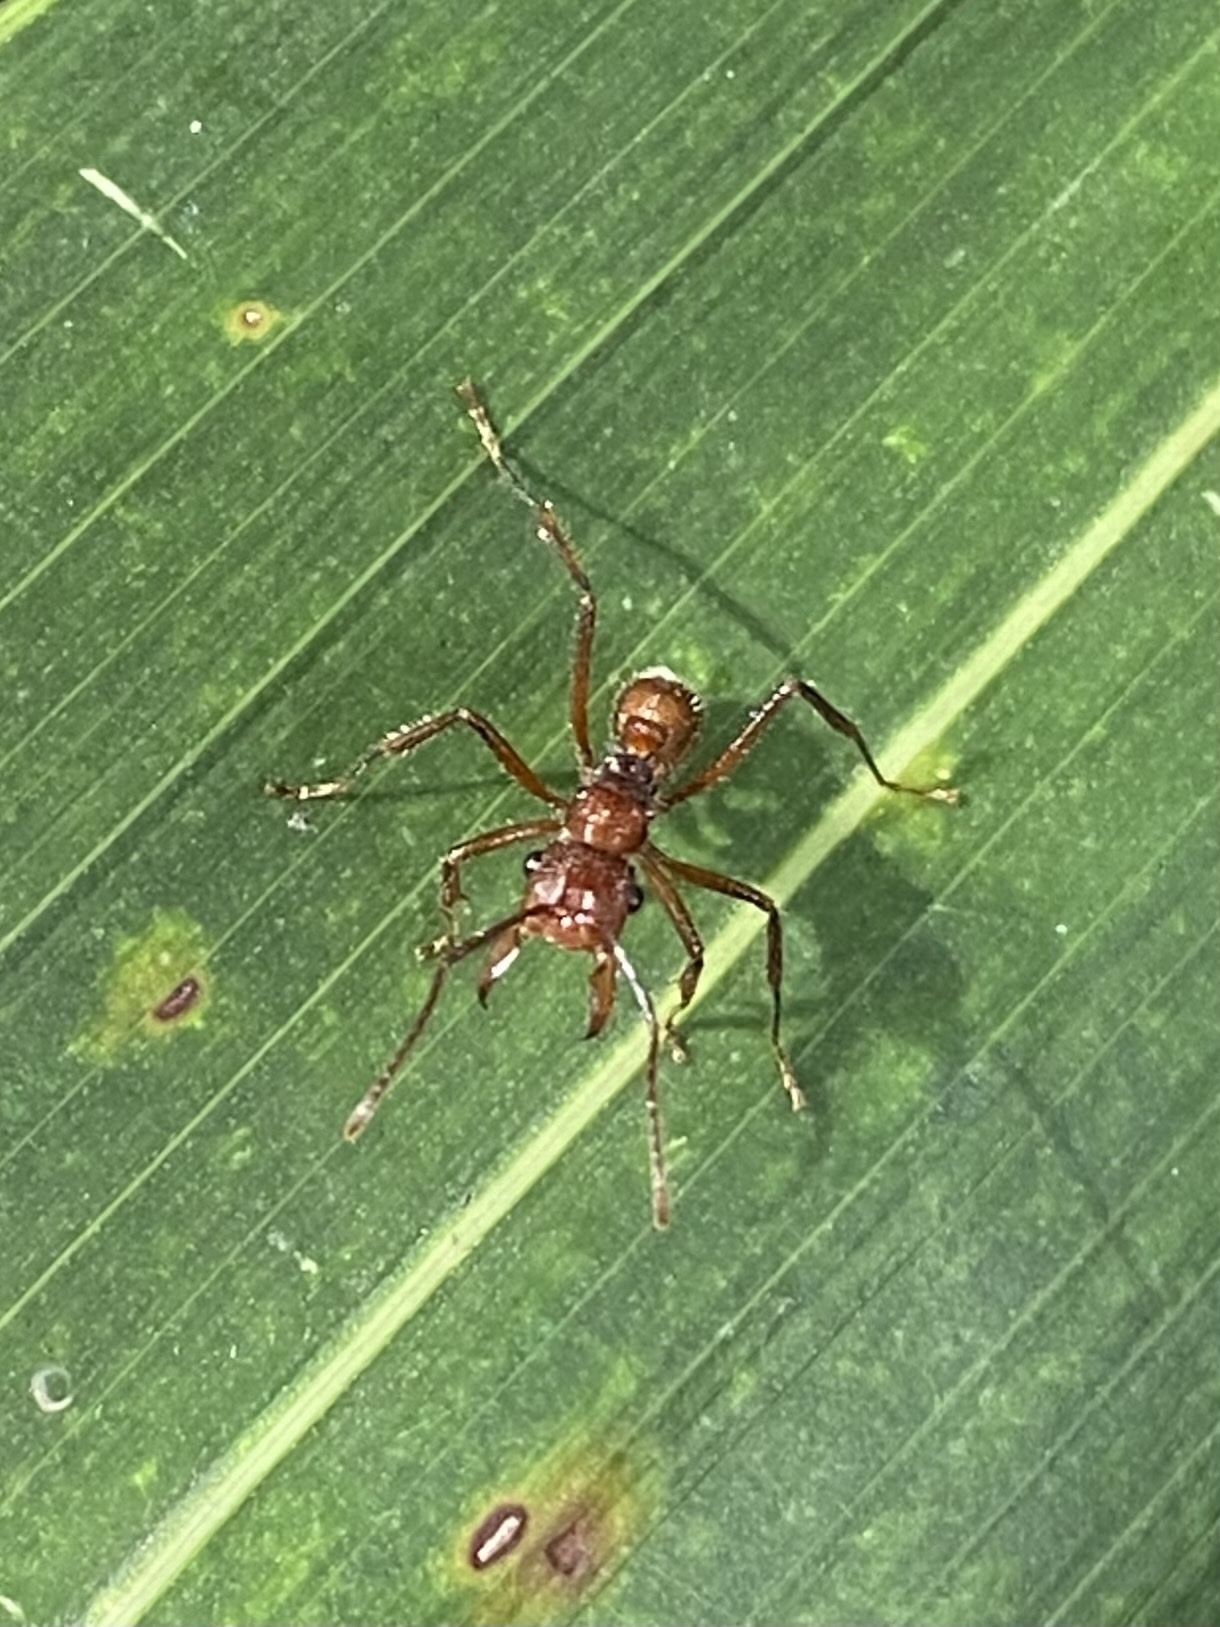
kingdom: Animalia
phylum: Arthropoda
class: Insecta
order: Hymenoptera
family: Formicidae
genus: Ectatomma
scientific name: Ectatomma tuberculatum
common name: Ant
